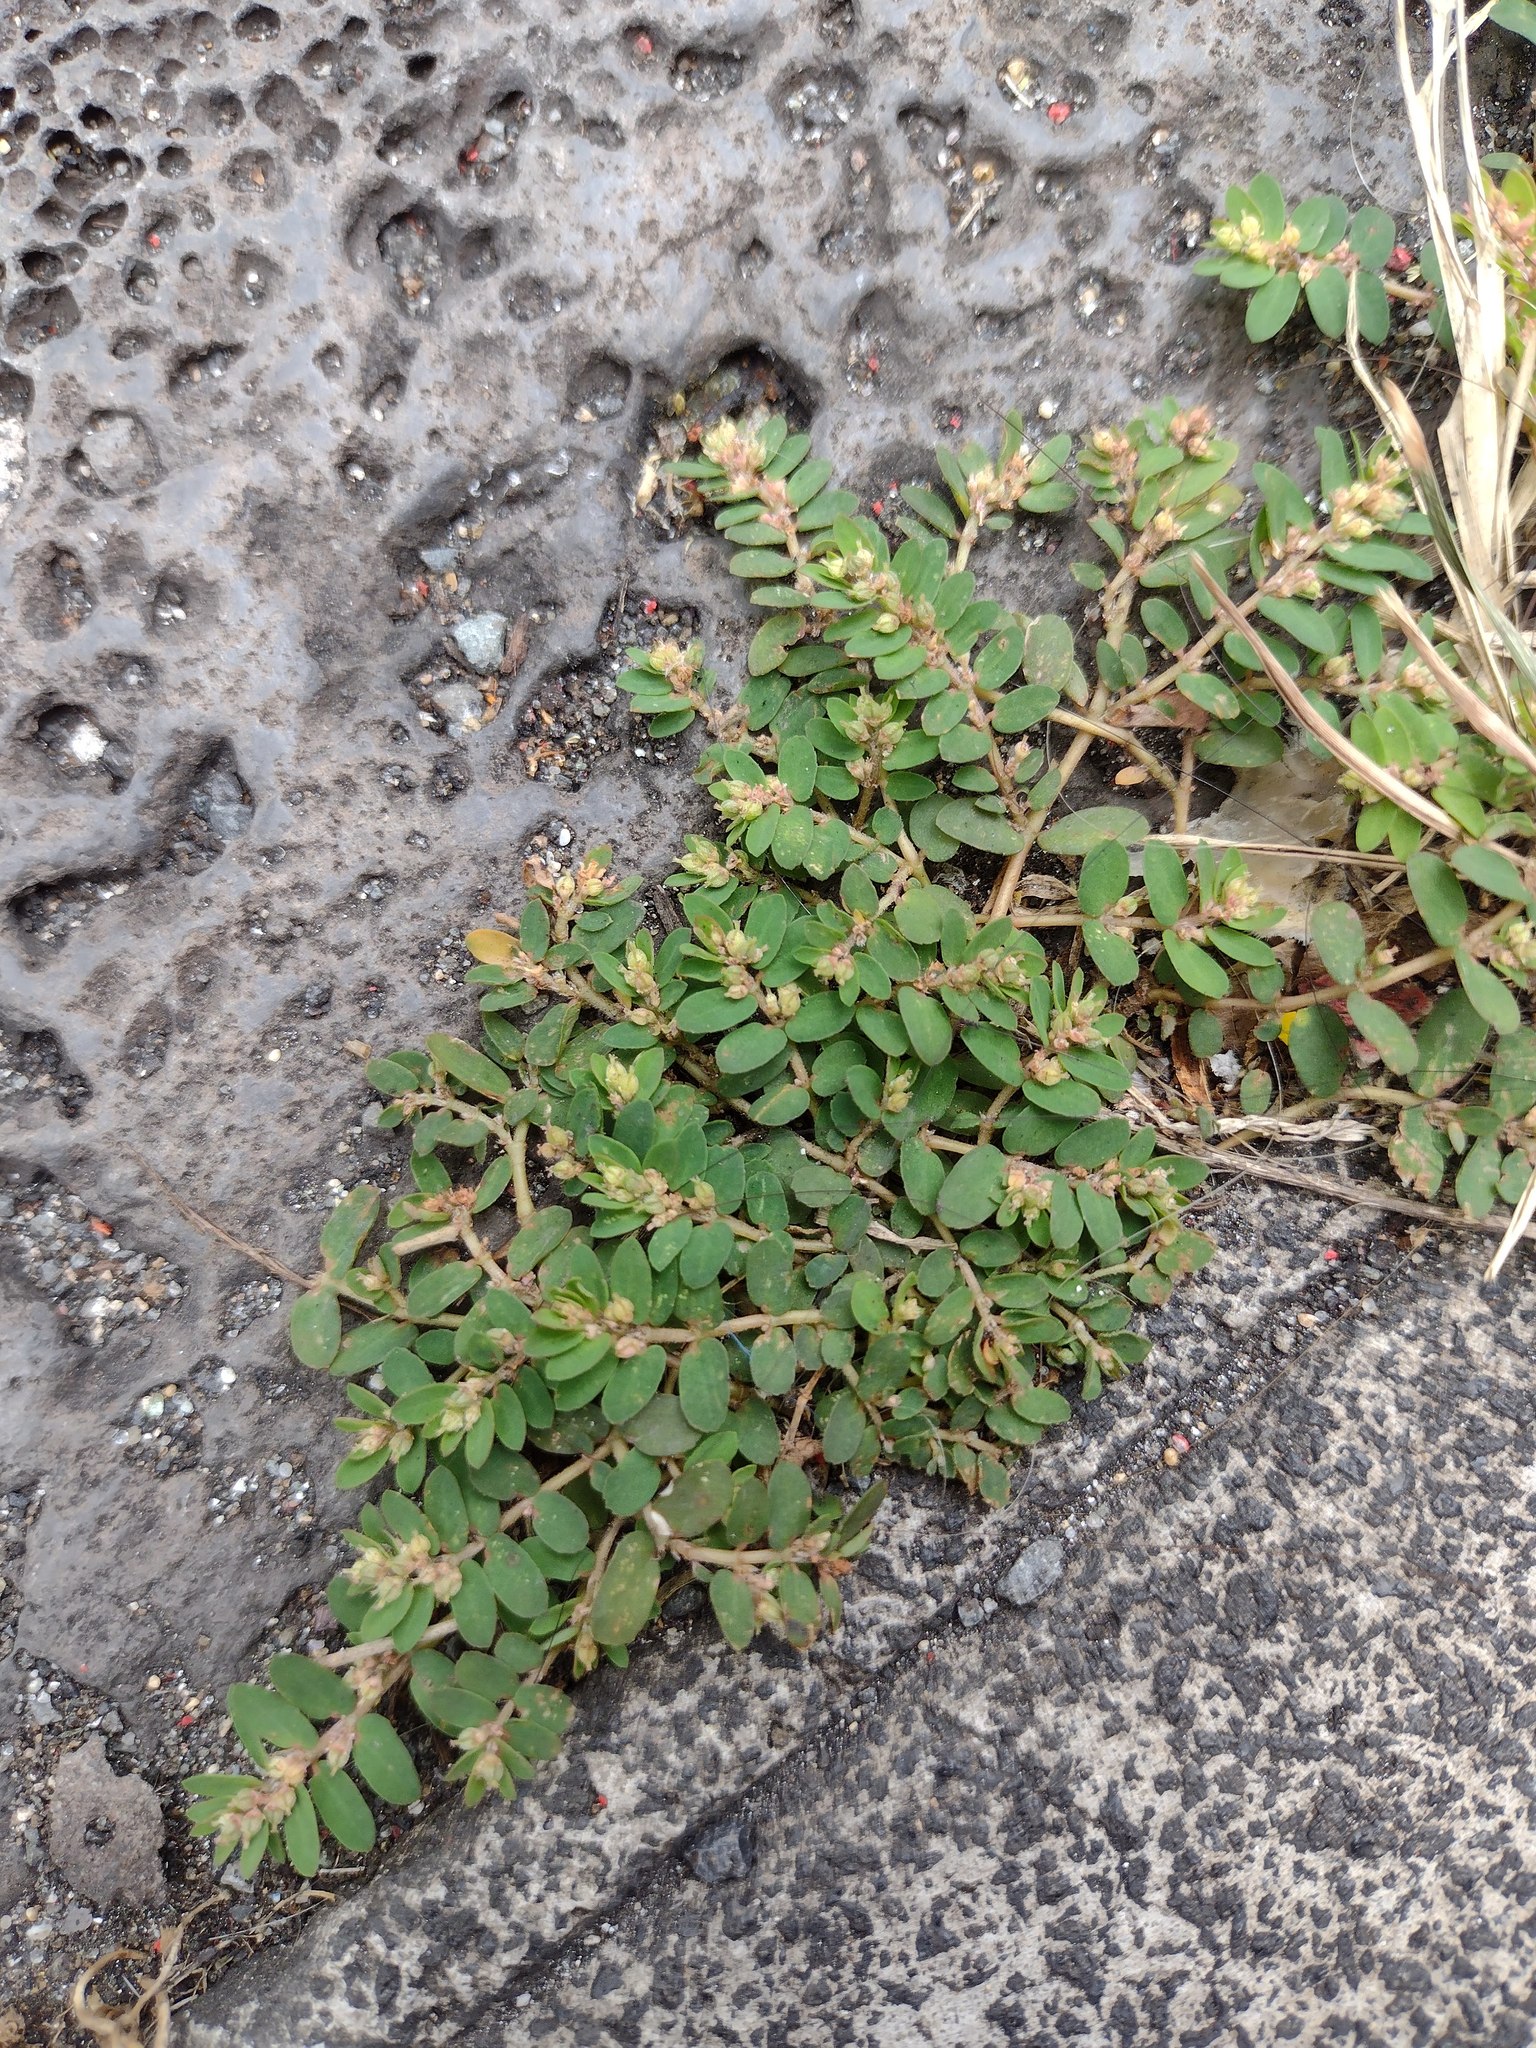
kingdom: Plantae
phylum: Tracheophyta
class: Magnoliopsida
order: Malpighiales
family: Euphorbiaceae
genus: Euphorbia
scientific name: Euphorbia thymifolia
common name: Gulf sandmat
